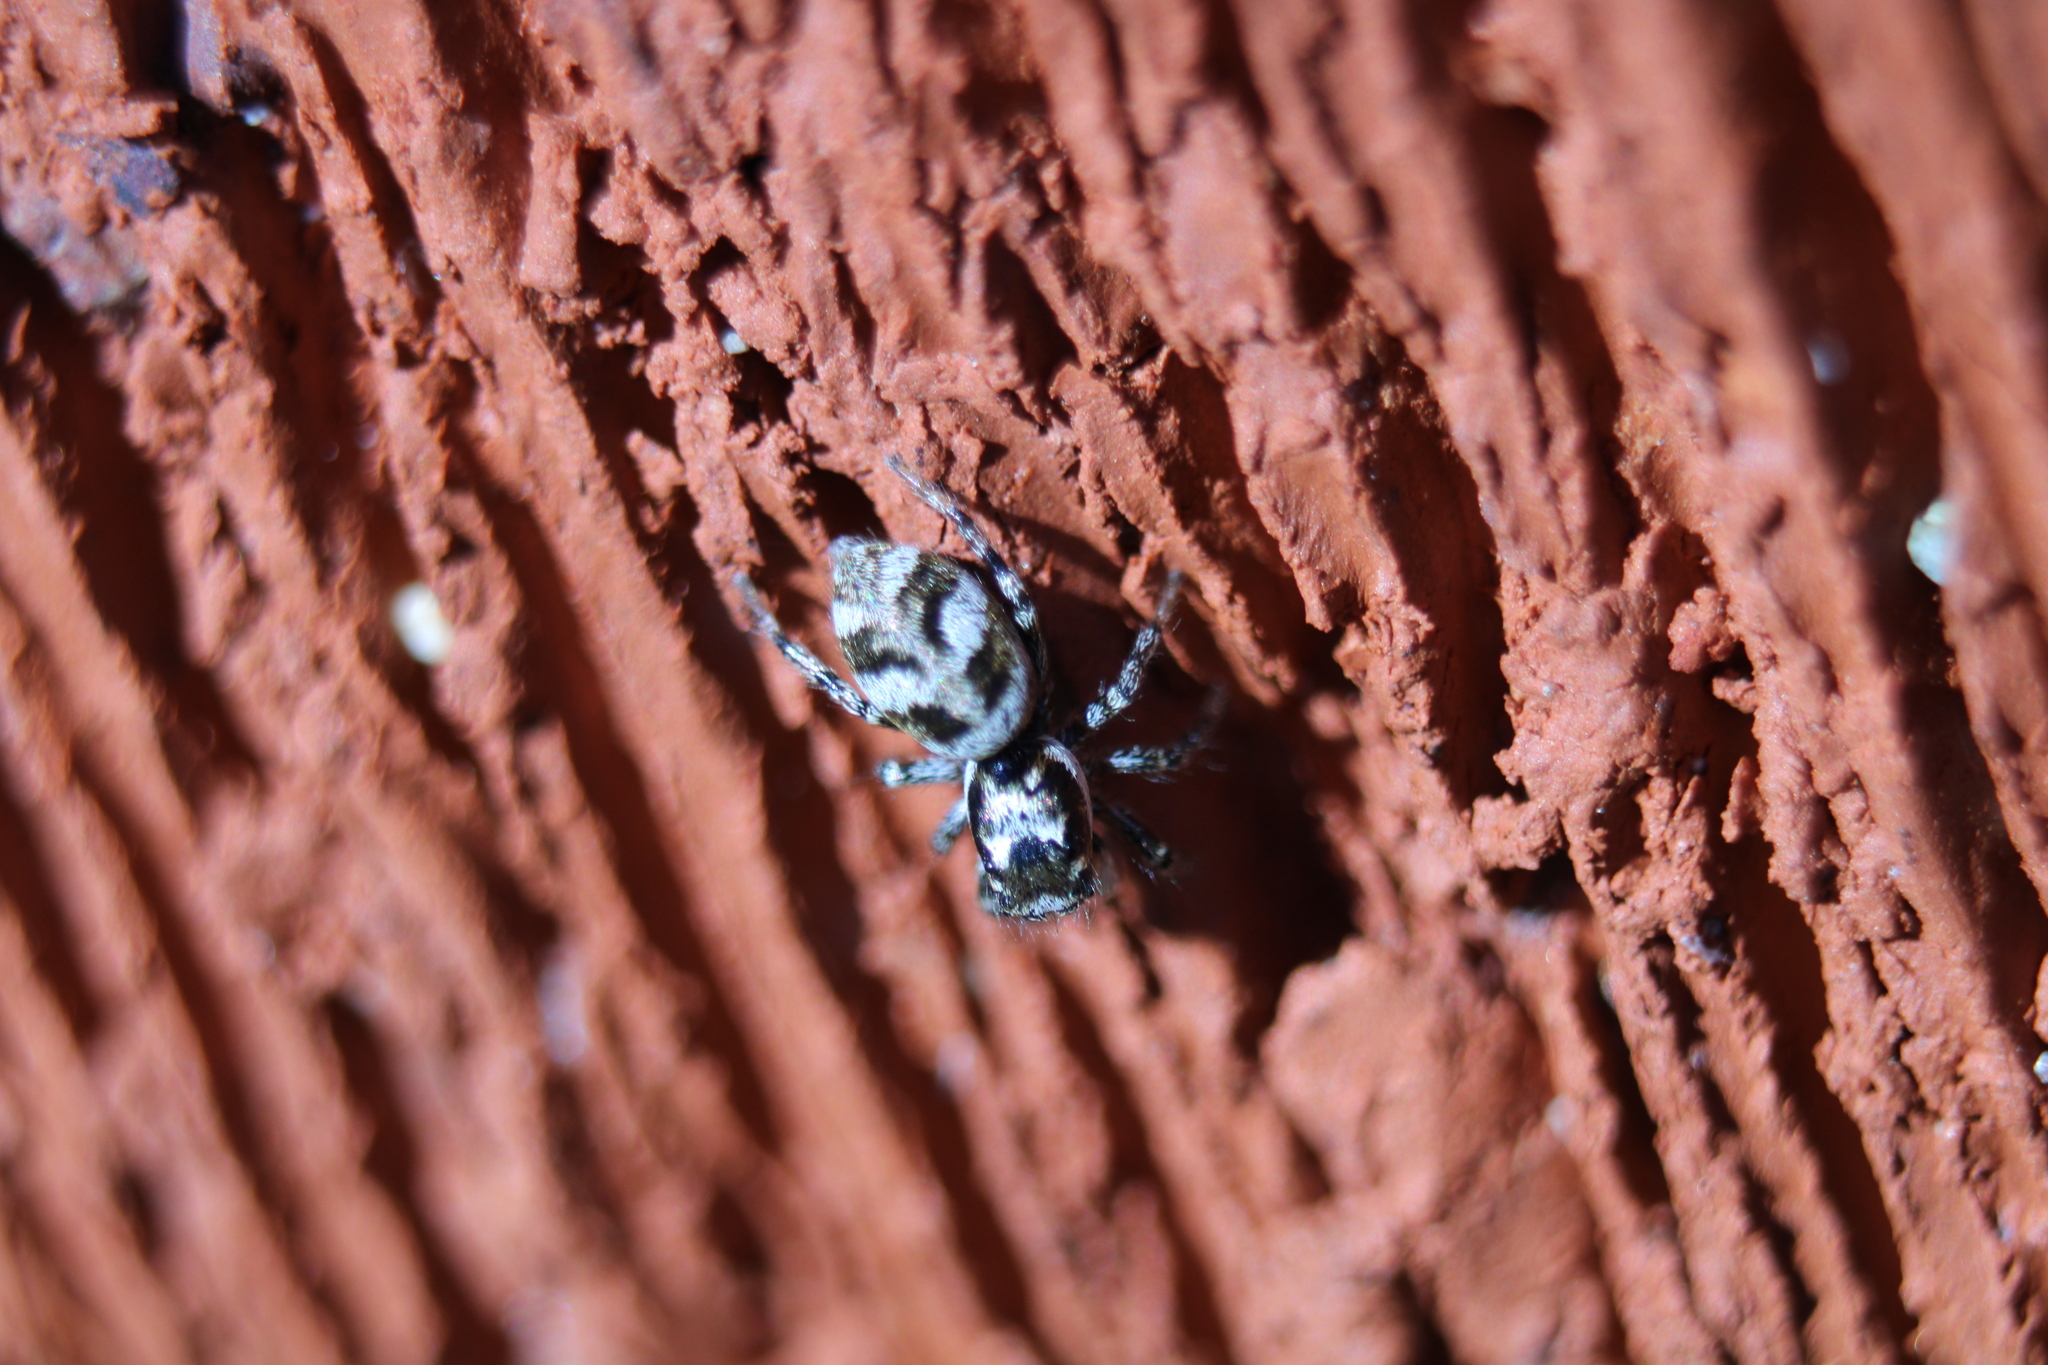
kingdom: Animalia
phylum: Arthropoda
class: Arachnida
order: Araneae
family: Salticidae
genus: Salticus
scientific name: Salticus scenicus
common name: Zebra jumper
